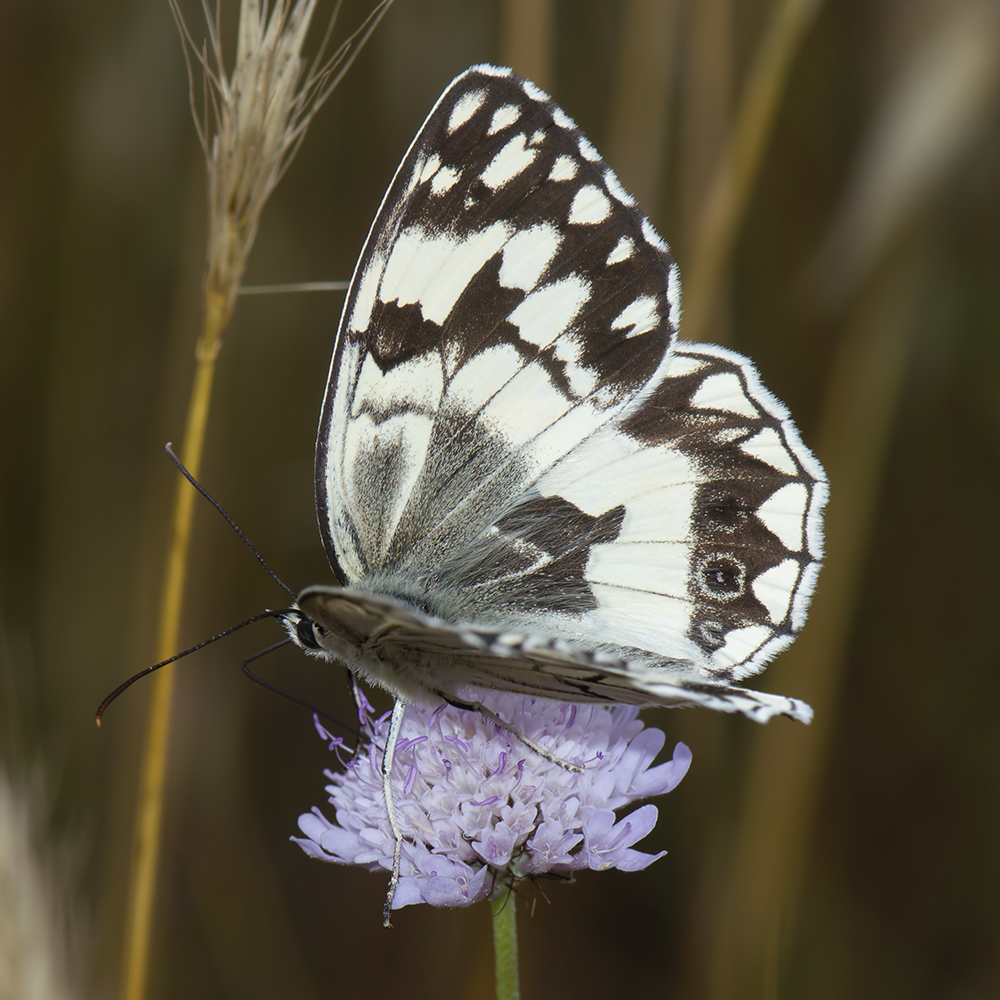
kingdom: Animalia
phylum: Arthropoda
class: Insecta
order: Lepidoptera
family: Nymphalidae
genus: Melanargia
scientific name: Melanargia larissa
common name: Balkan marbled white
